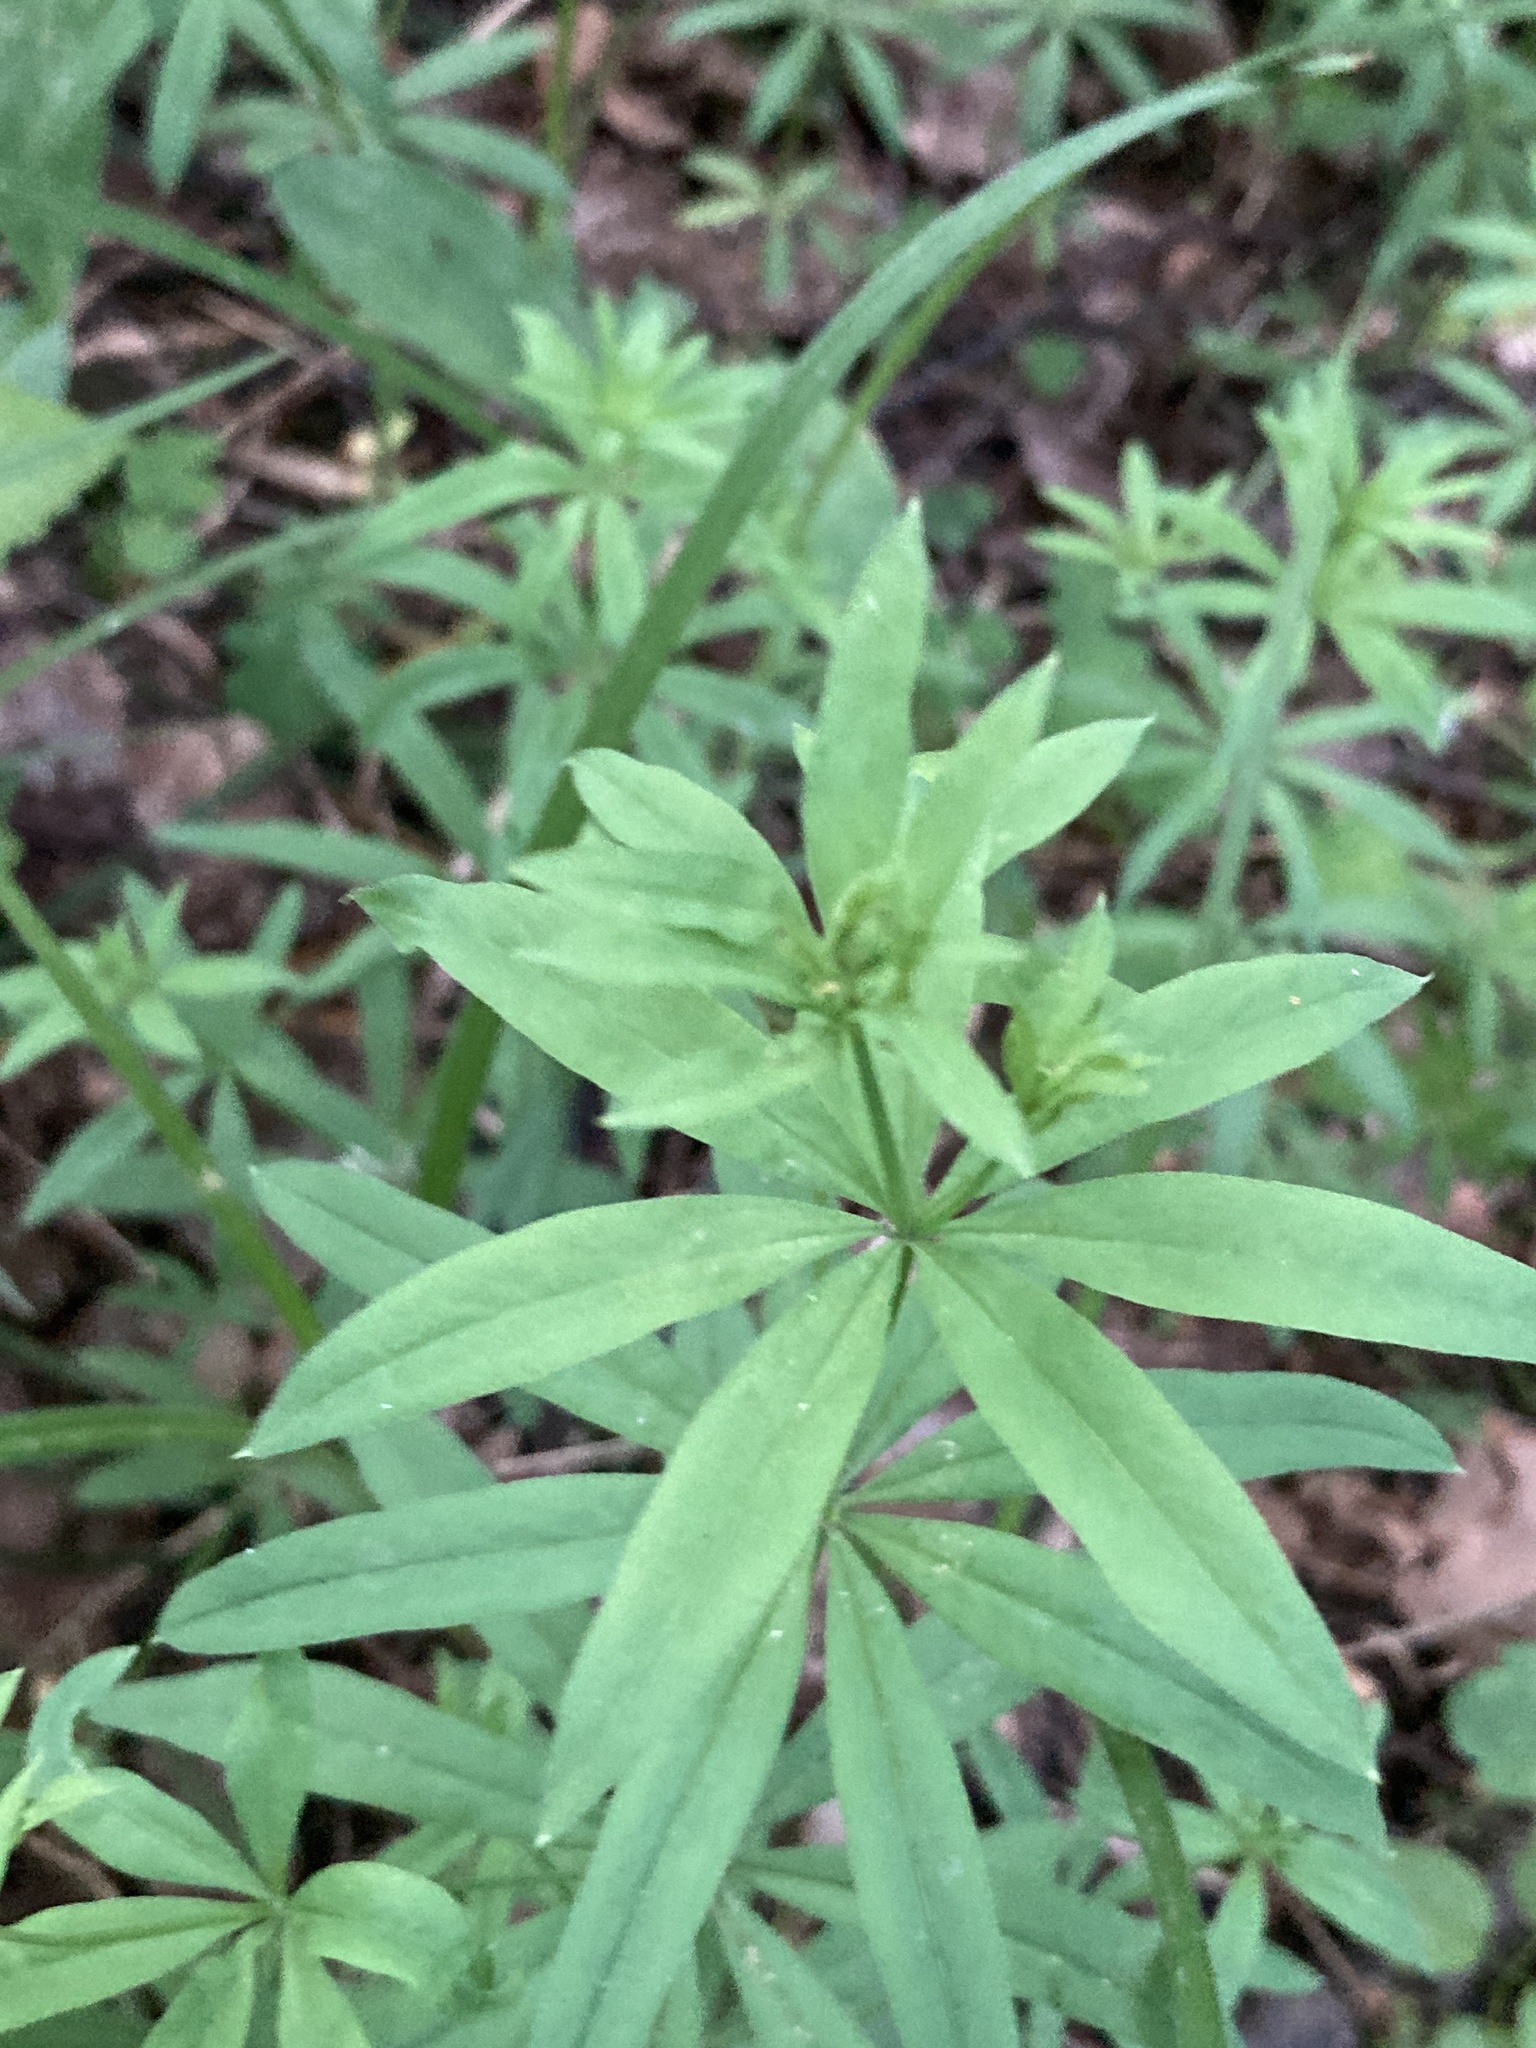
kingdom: Plantae
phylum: Tracheophyta
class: Magnoliopsida
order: Gentianales
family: Rubiaceae
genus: Galium
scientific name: Galium intermedium
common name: Bedstraw
